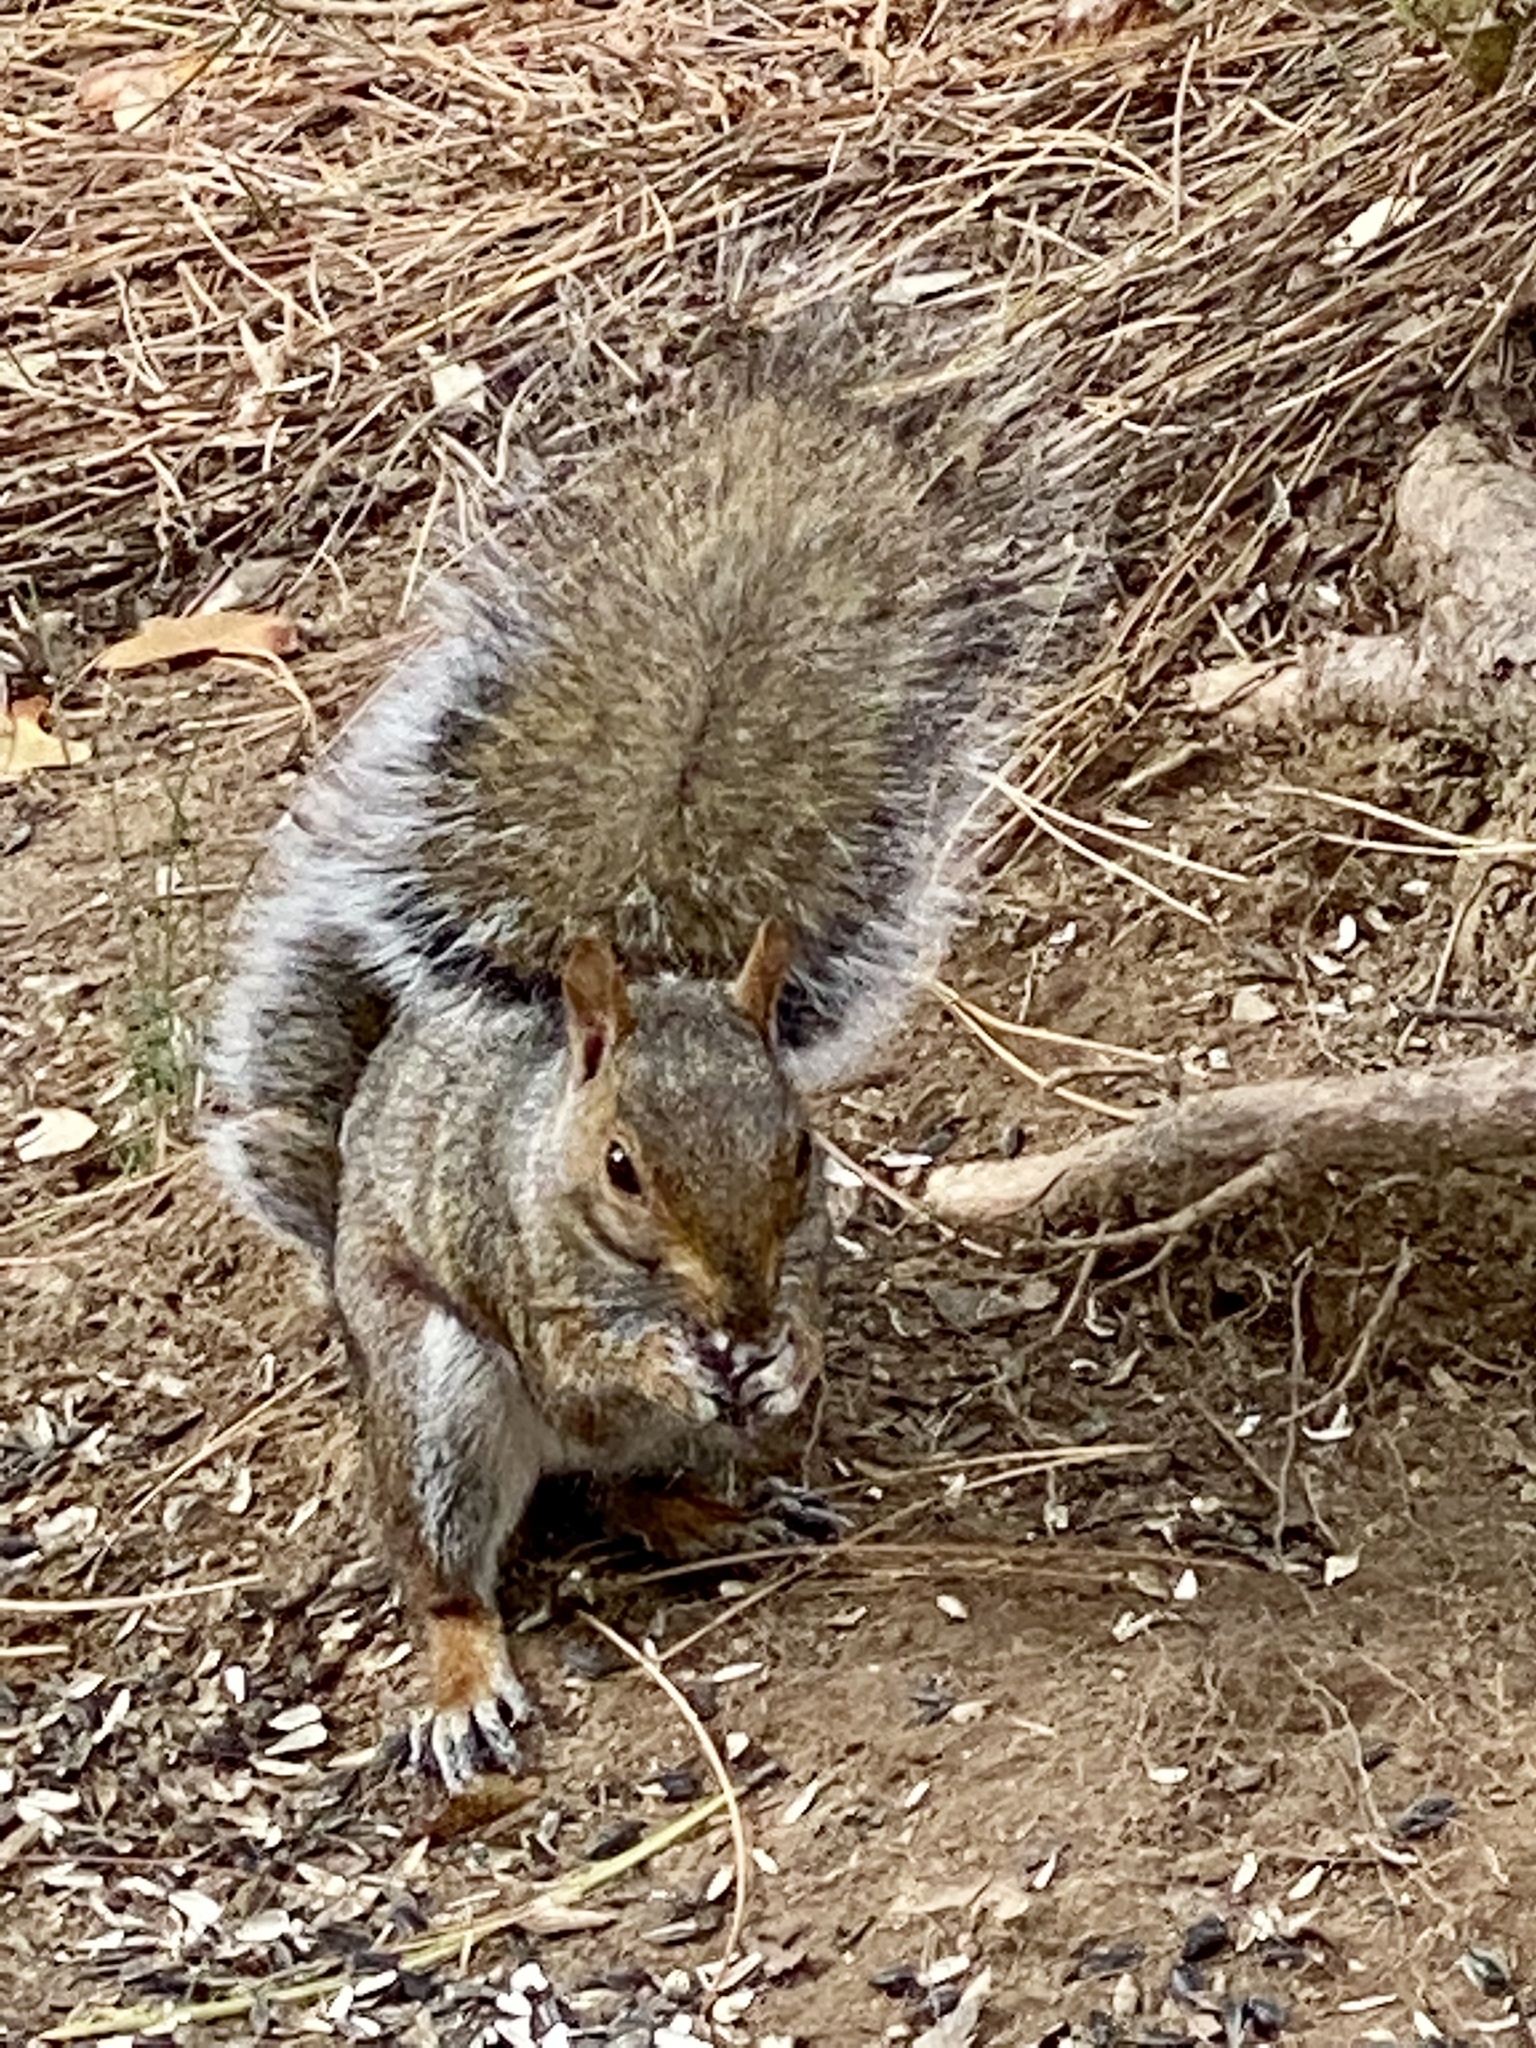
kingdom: Animalia
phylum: Chordata
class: Mammalia
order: Rodentia
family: Sciuridae
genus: Sciurus
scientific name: Sciurus carolinensis
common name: Eastern gray squirrel
